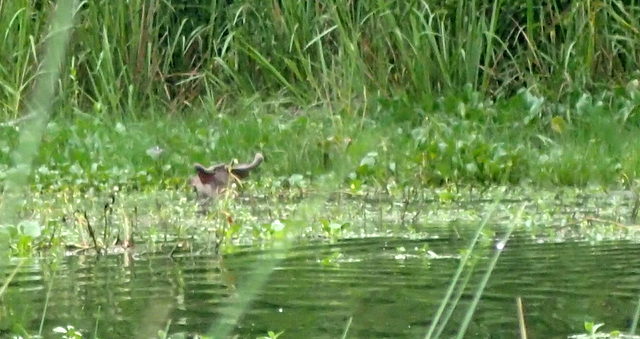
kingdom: Animalia
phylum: Chordata
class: Mammalia
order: Artiodactyla
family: Cervidae
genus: Odocoileus
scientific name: Odocoileus virginianus
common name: White-tailed deer
